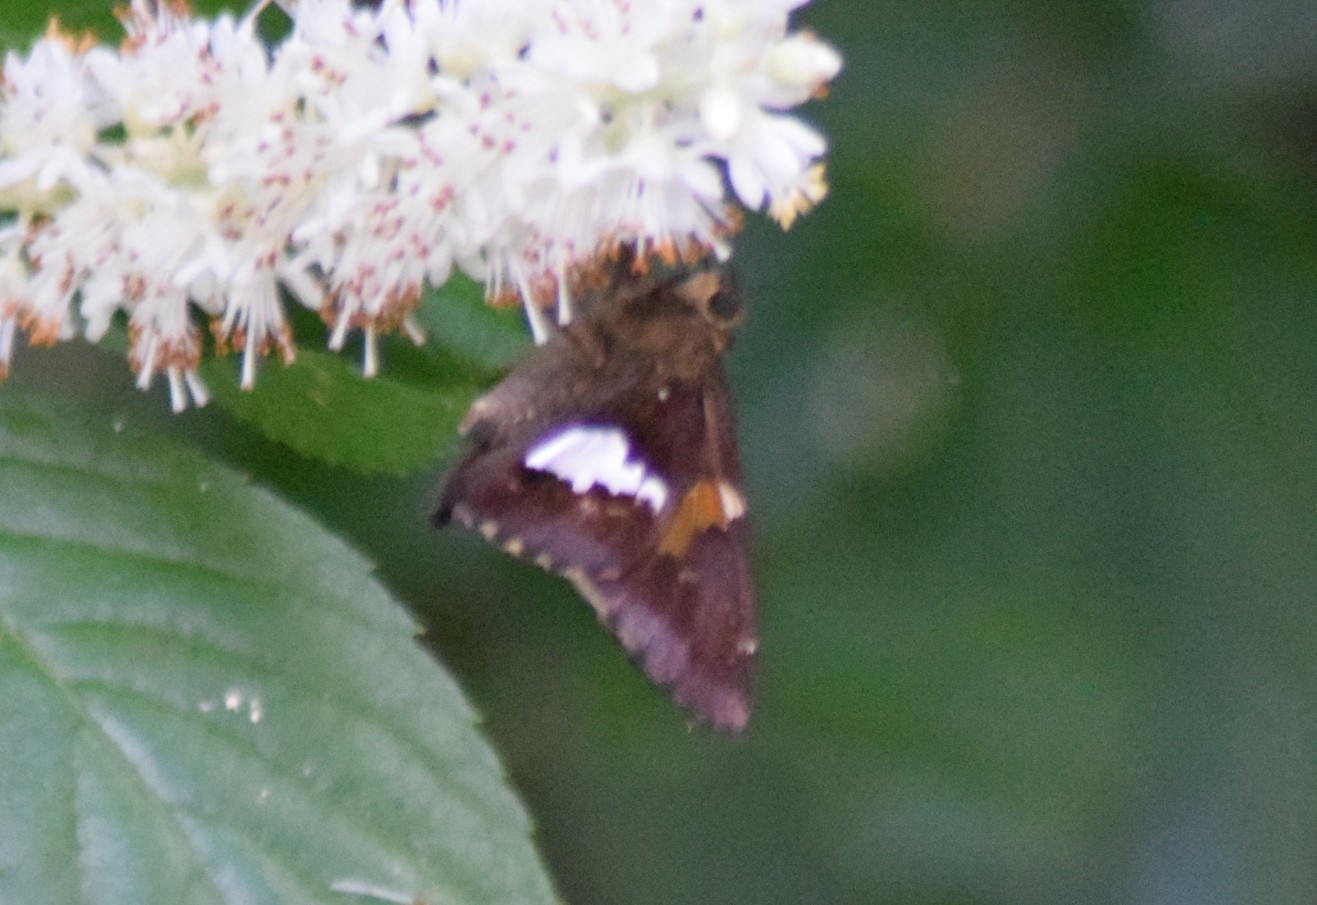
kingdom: Animalia
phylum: Arthropoda
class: Insecta
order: Lepidoptera
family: Hesperiidae
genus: Epargyreus
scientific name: Epargyreus clarus
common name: Silver-spotted skipper
